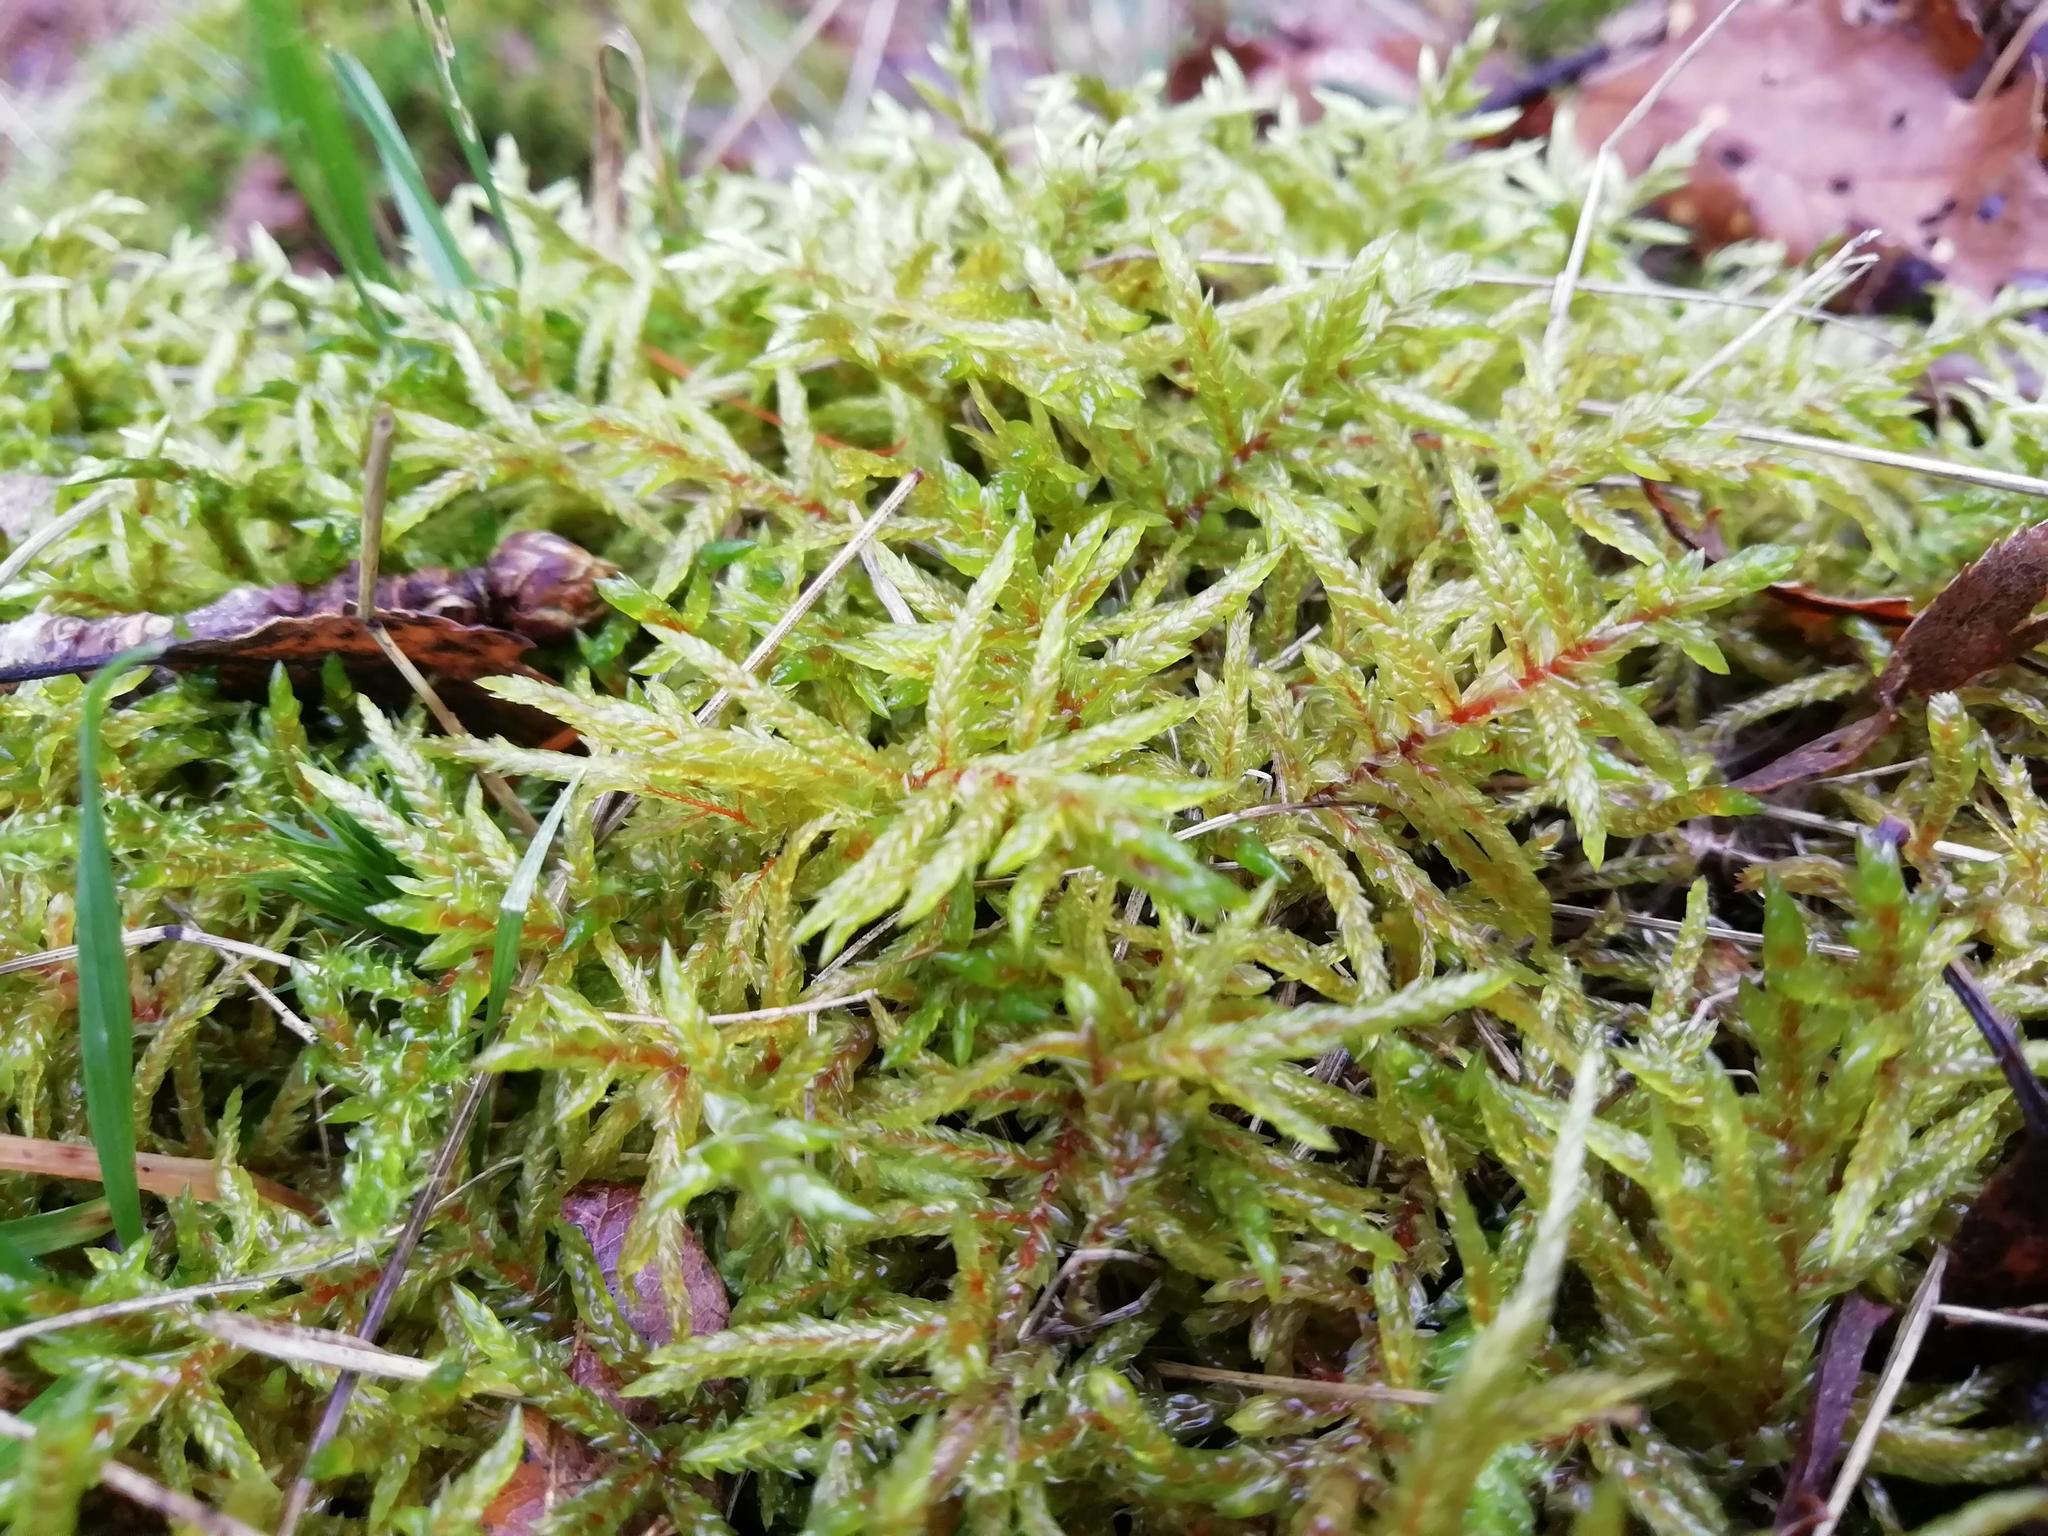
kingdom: Plantae
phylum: Bryophyta
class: Bryopsida
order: Hypnales
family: Hylocomiaceae
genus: Pleurozium
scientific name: Pleurozium schreberi
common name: Red-stemmed feather moss
